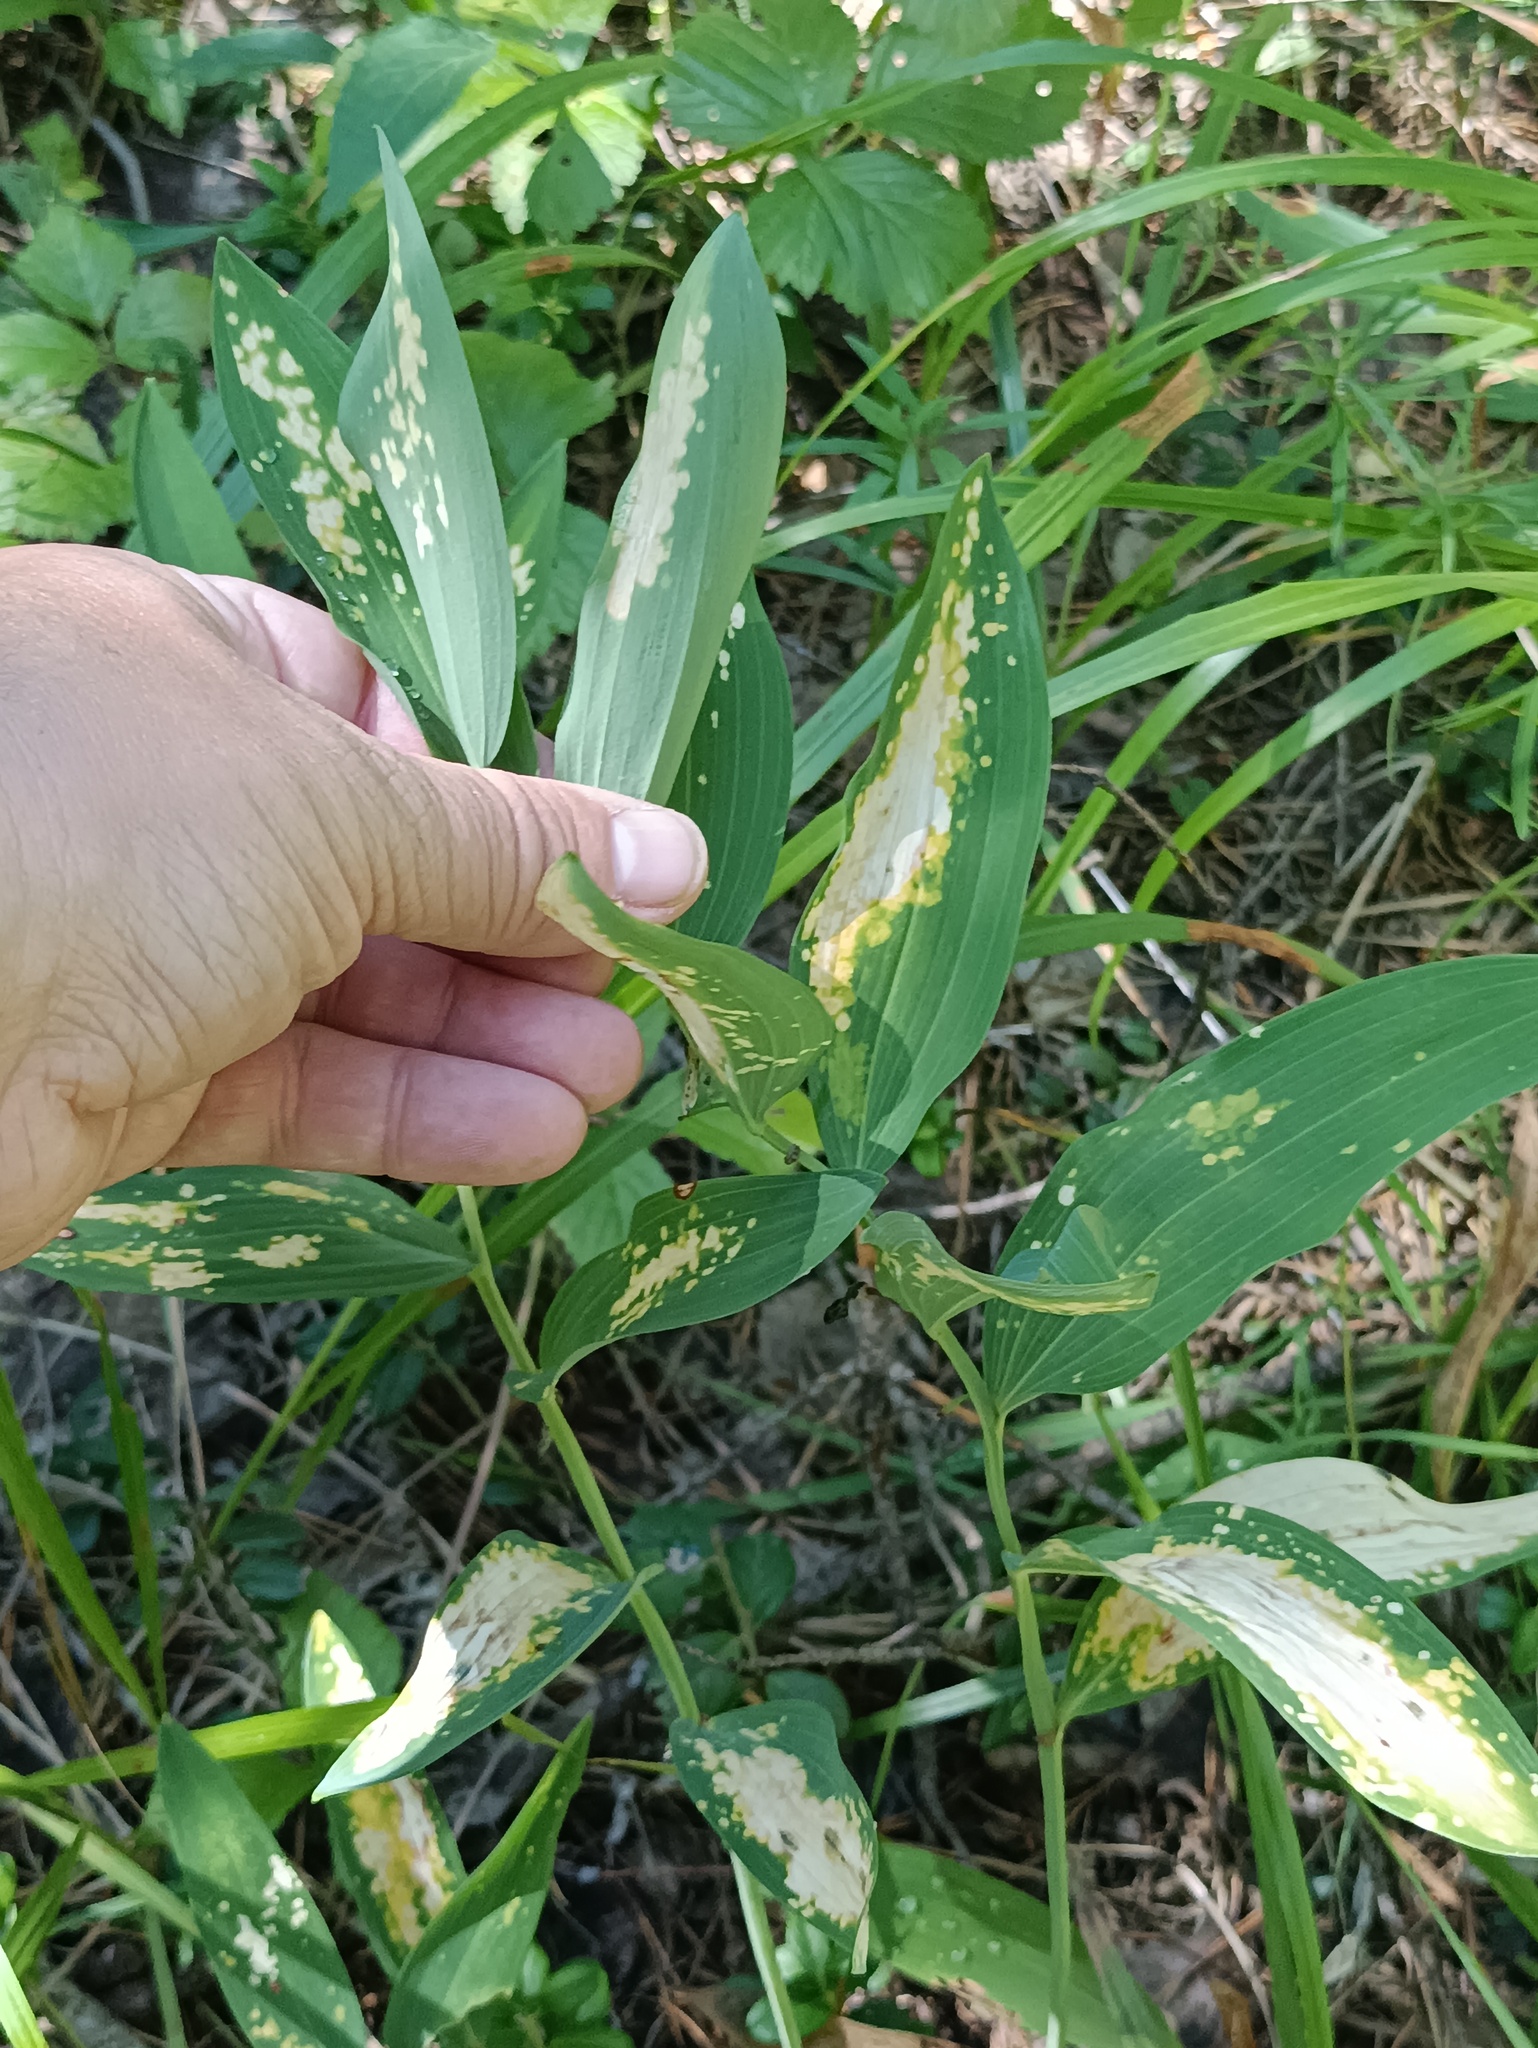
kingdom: Plantae
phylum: Tracheophyta
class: Liliopsida
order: Asparagales
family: Asparagaceae
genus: Polygonatum
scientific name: Polygonatum odoratum
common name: Angular solomon's-seal
